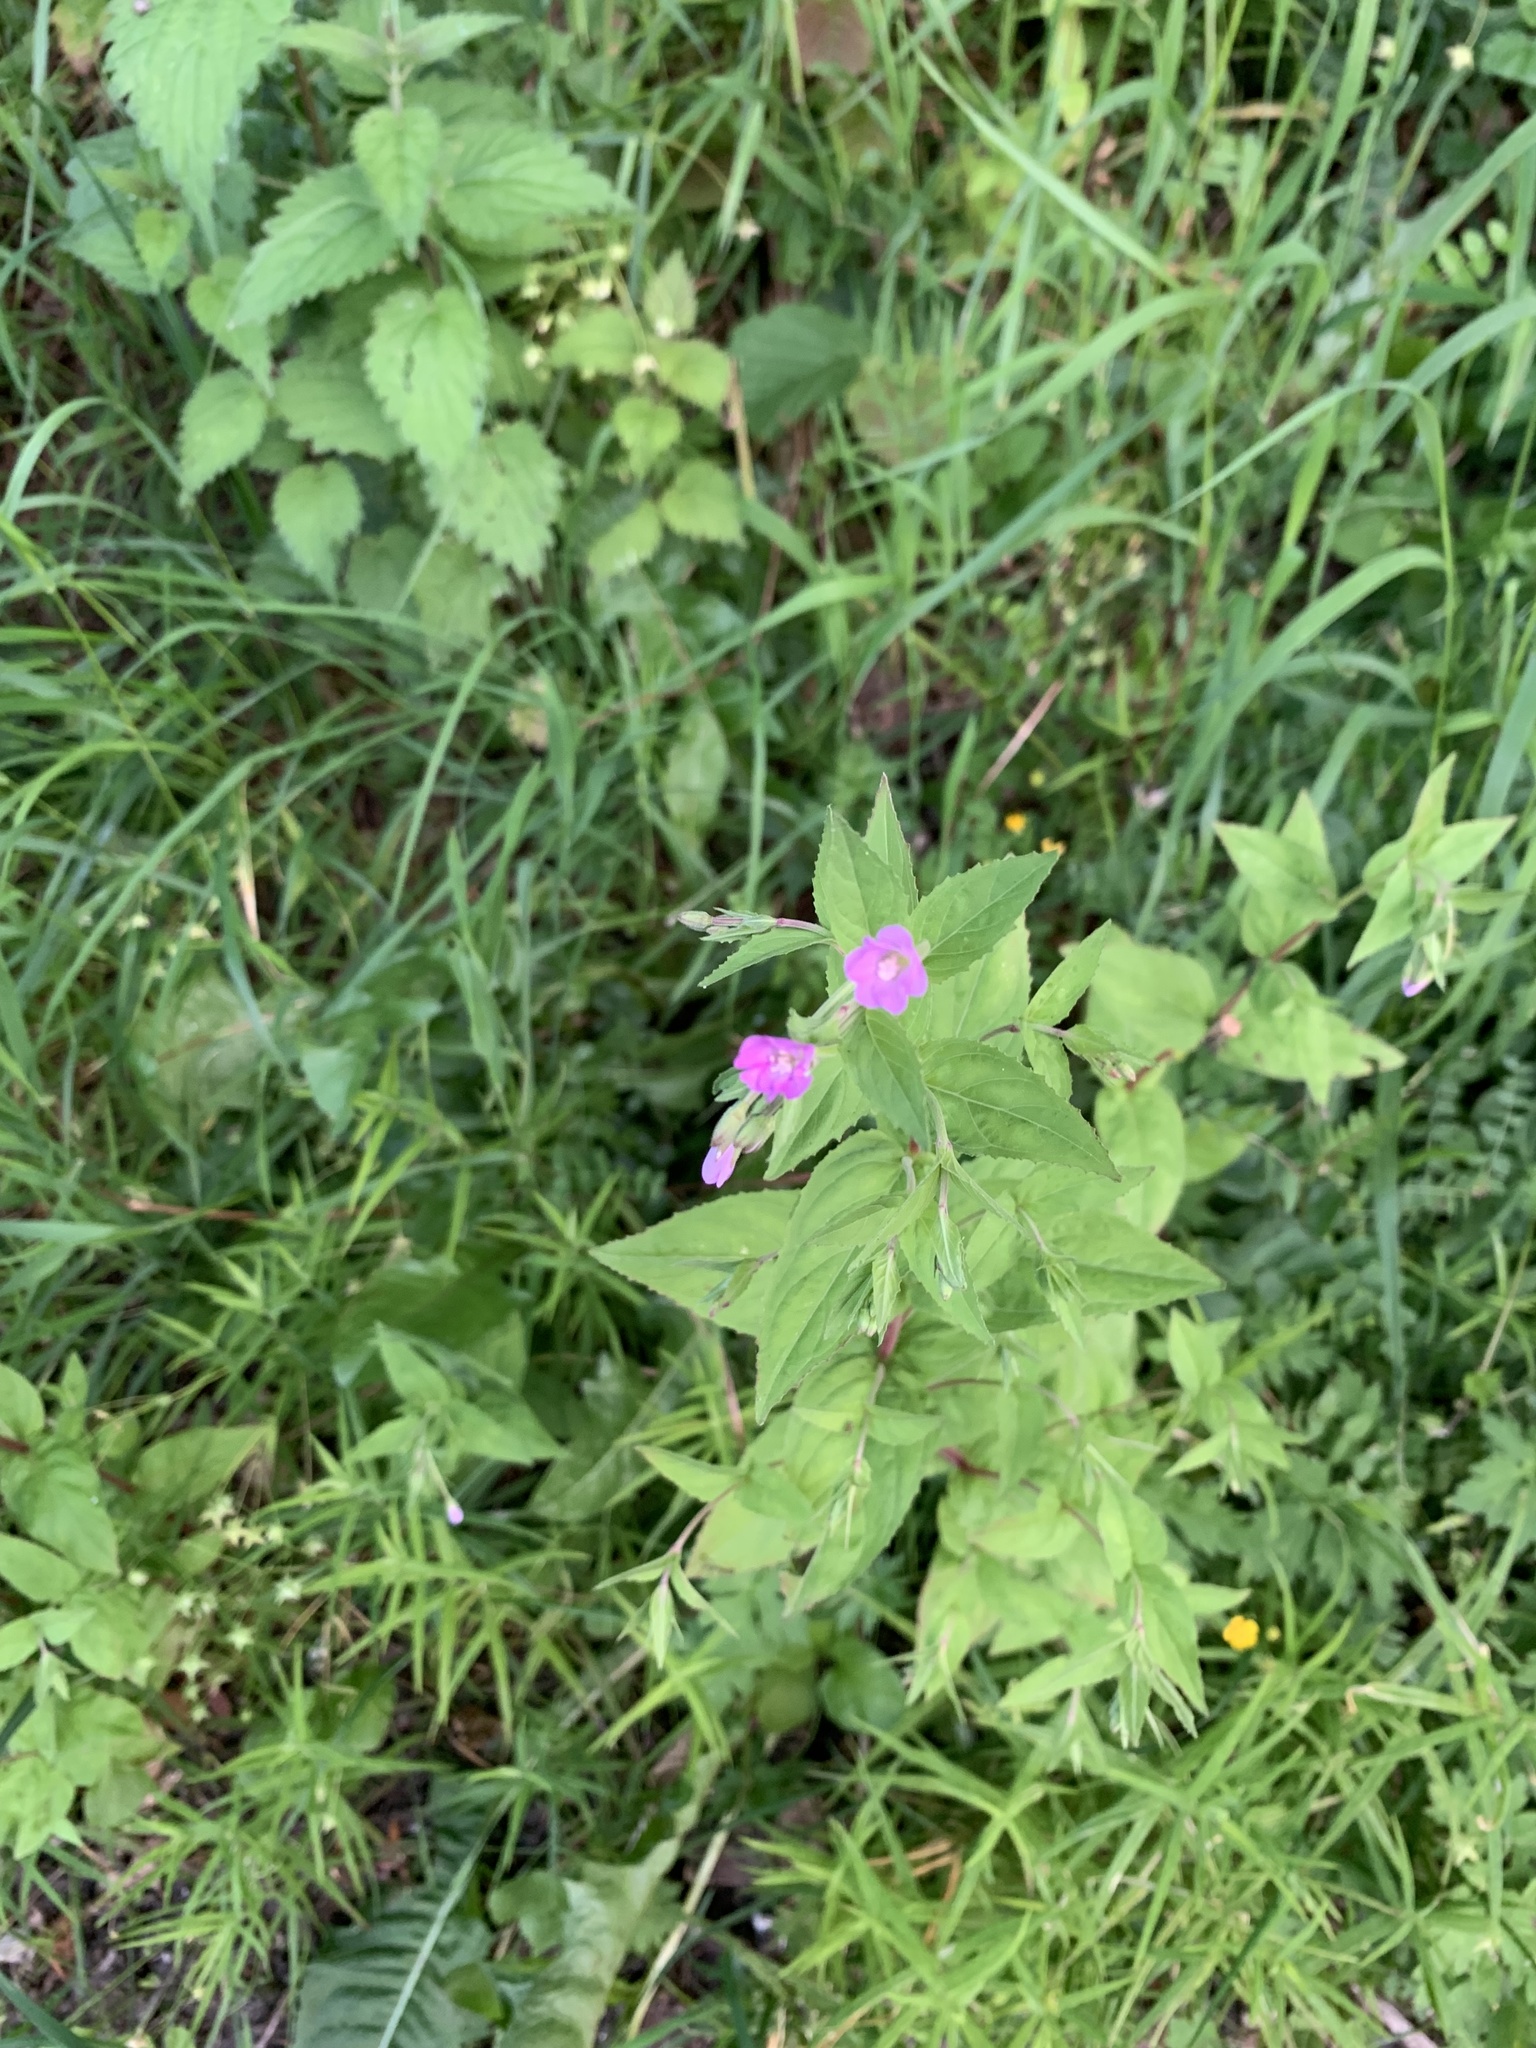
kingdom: Plantae
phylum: Tracheophyta
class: Magnoliopsida
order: Myrtales
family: Onagraceae
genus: Epilobium
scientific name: Epilobium hirsutum
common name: Great willowherb
